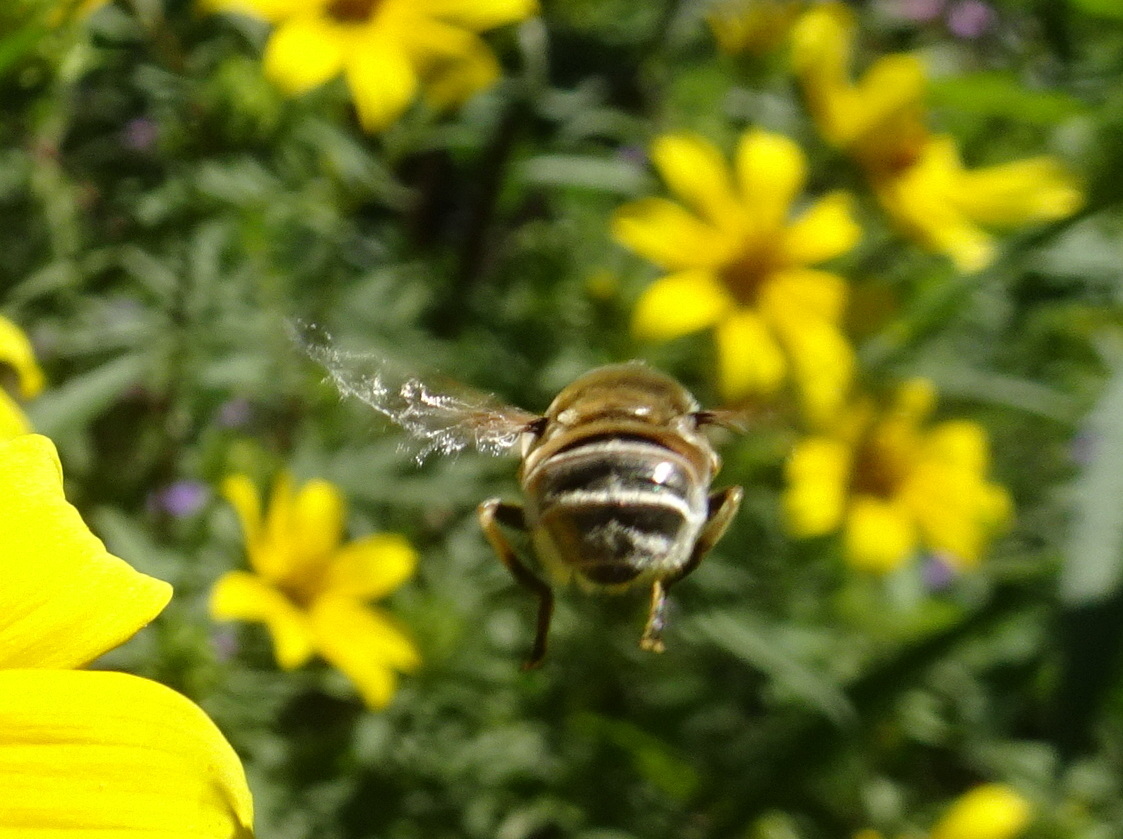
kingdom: Animalia
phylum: Arthropoda
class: Insecta
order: Diptera
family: Syrphidae
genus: Eristalis
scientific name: Eristalis stipator
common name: Yellow-shouldered drone fly
